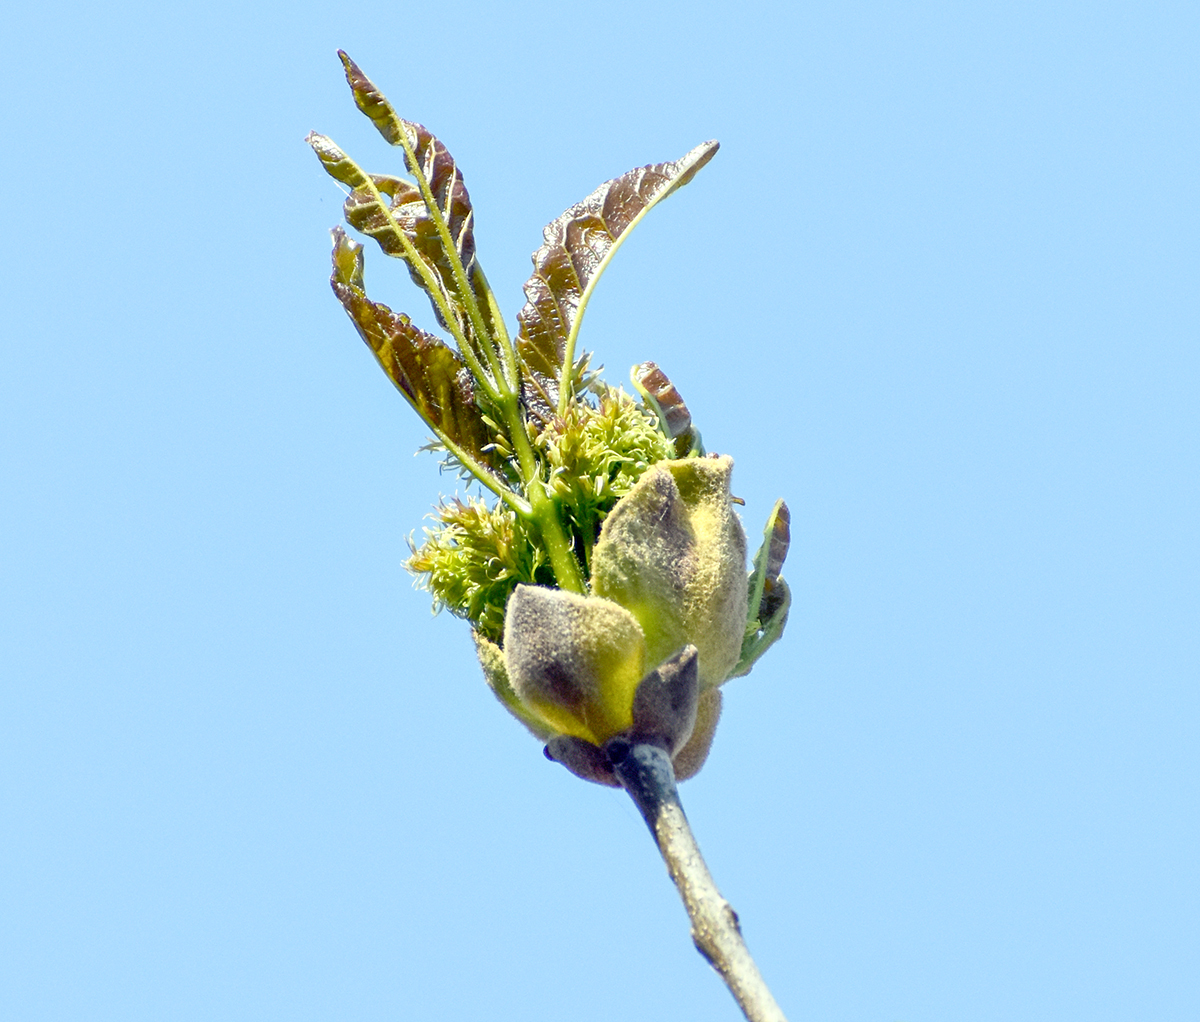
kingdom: Plantae
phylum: Tracheophyta
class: Magnoliopsida
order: Lamiales
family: Oleaceae
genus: Fraxinus
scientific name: Fraxinus excelsior
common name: European ash
